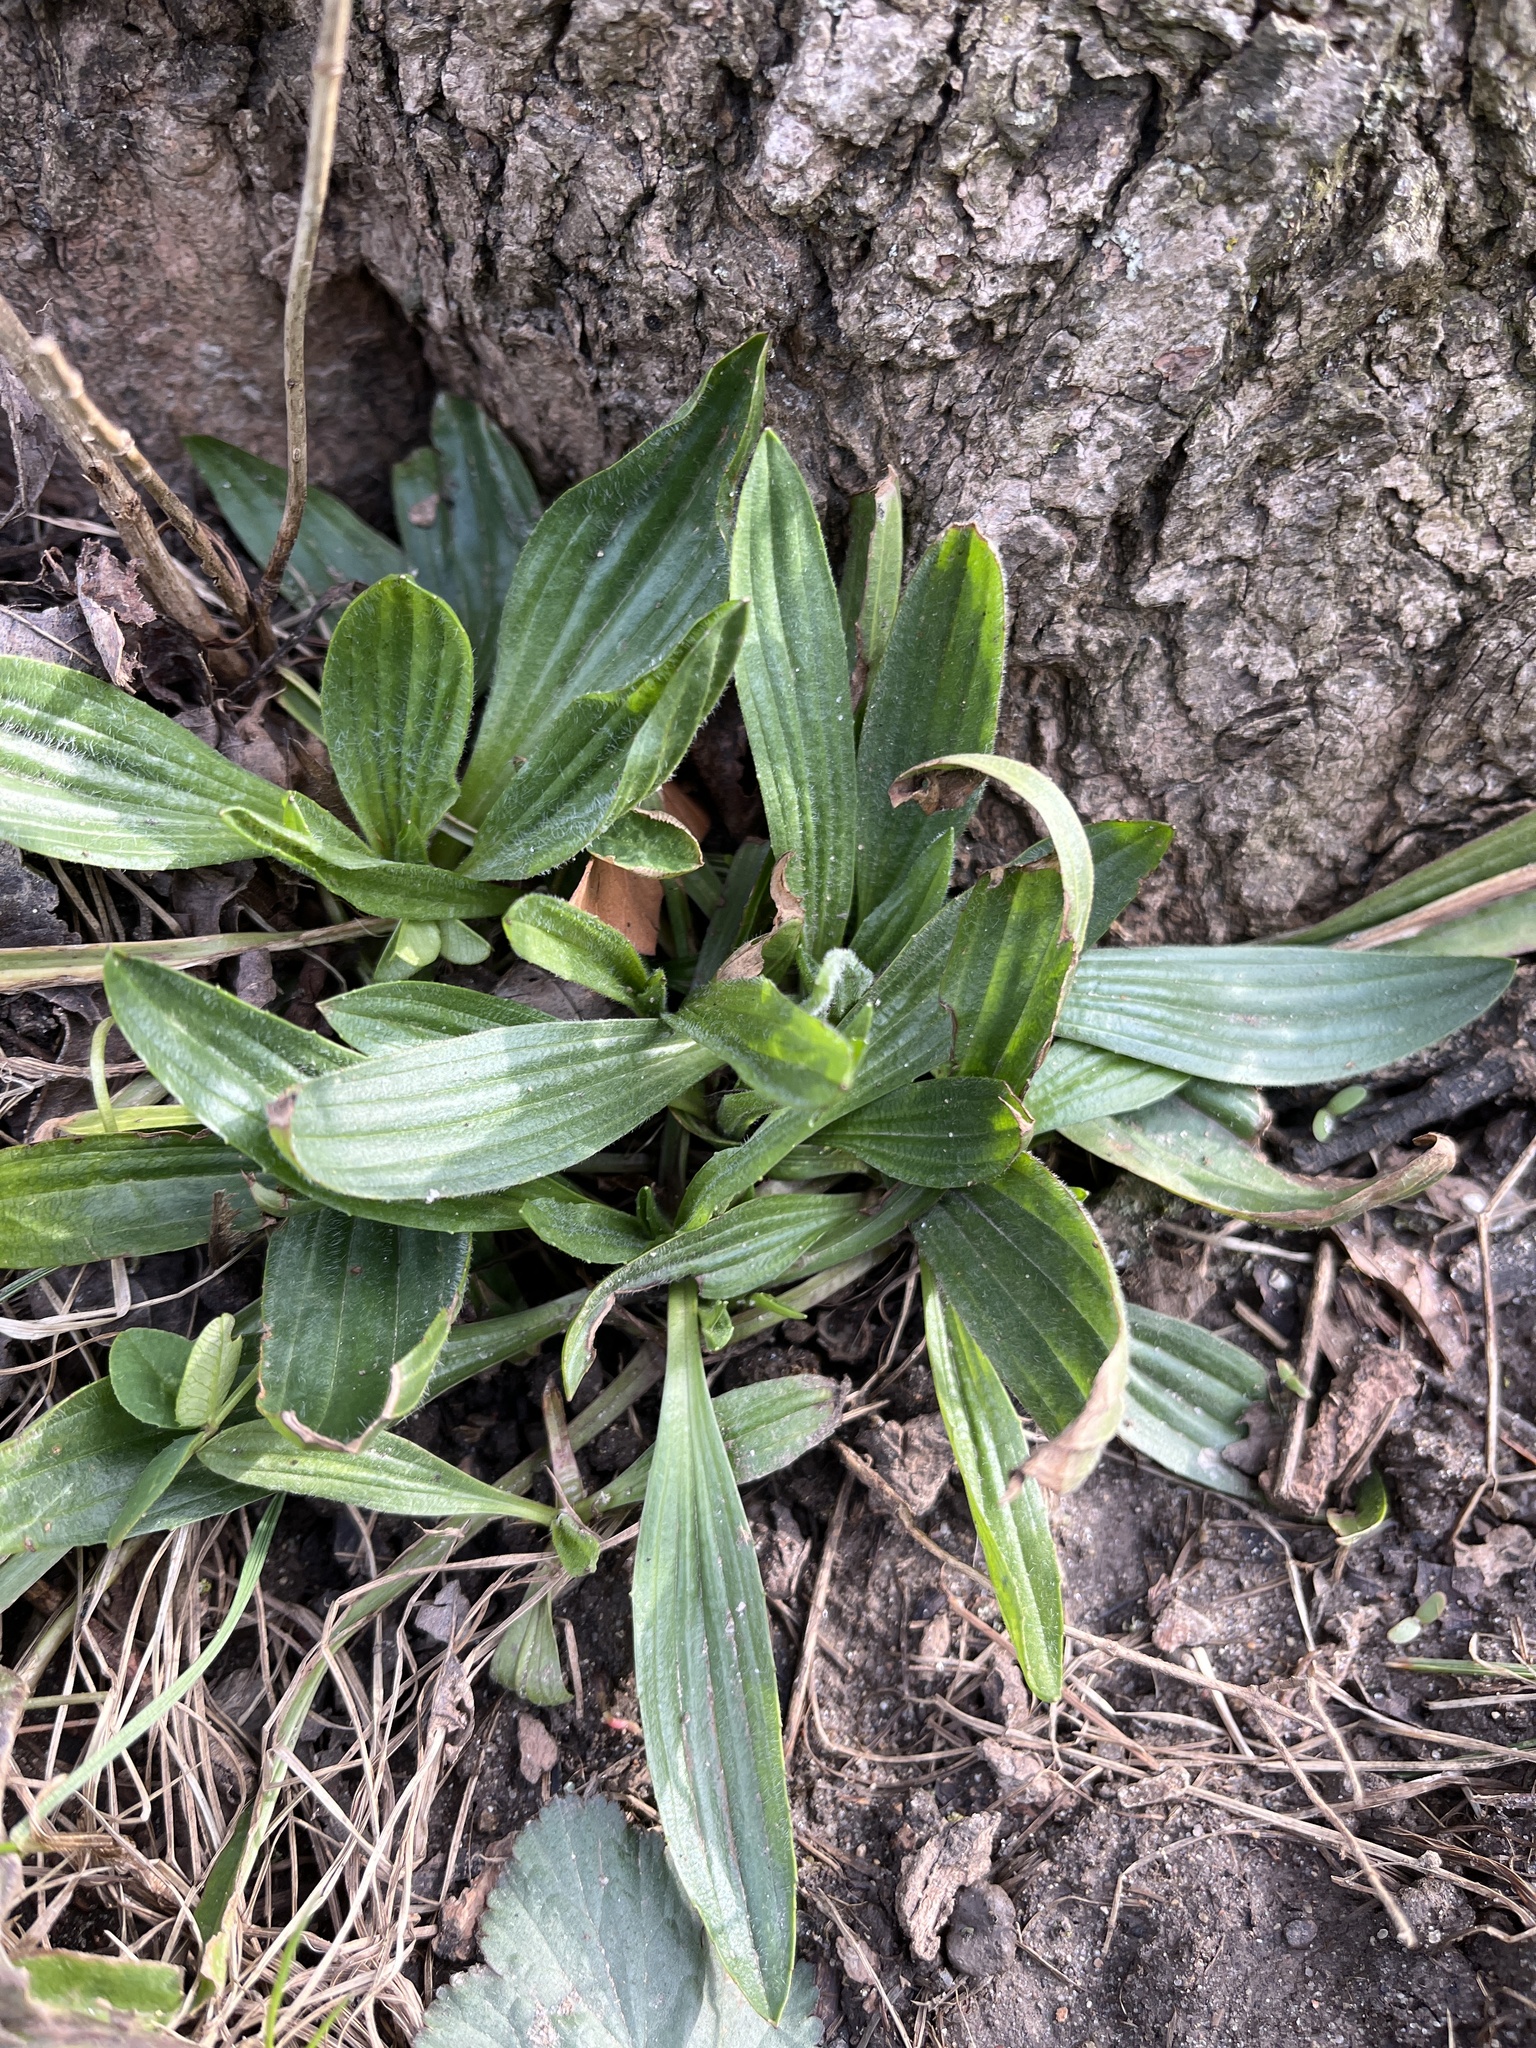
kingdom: Plantae
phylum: Tracheophyta
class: Magnoliopsida
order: Lamiales
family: Plantaginaceae
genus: Plantago
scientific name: Plantago lanceolata
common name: Ribwort plantain
